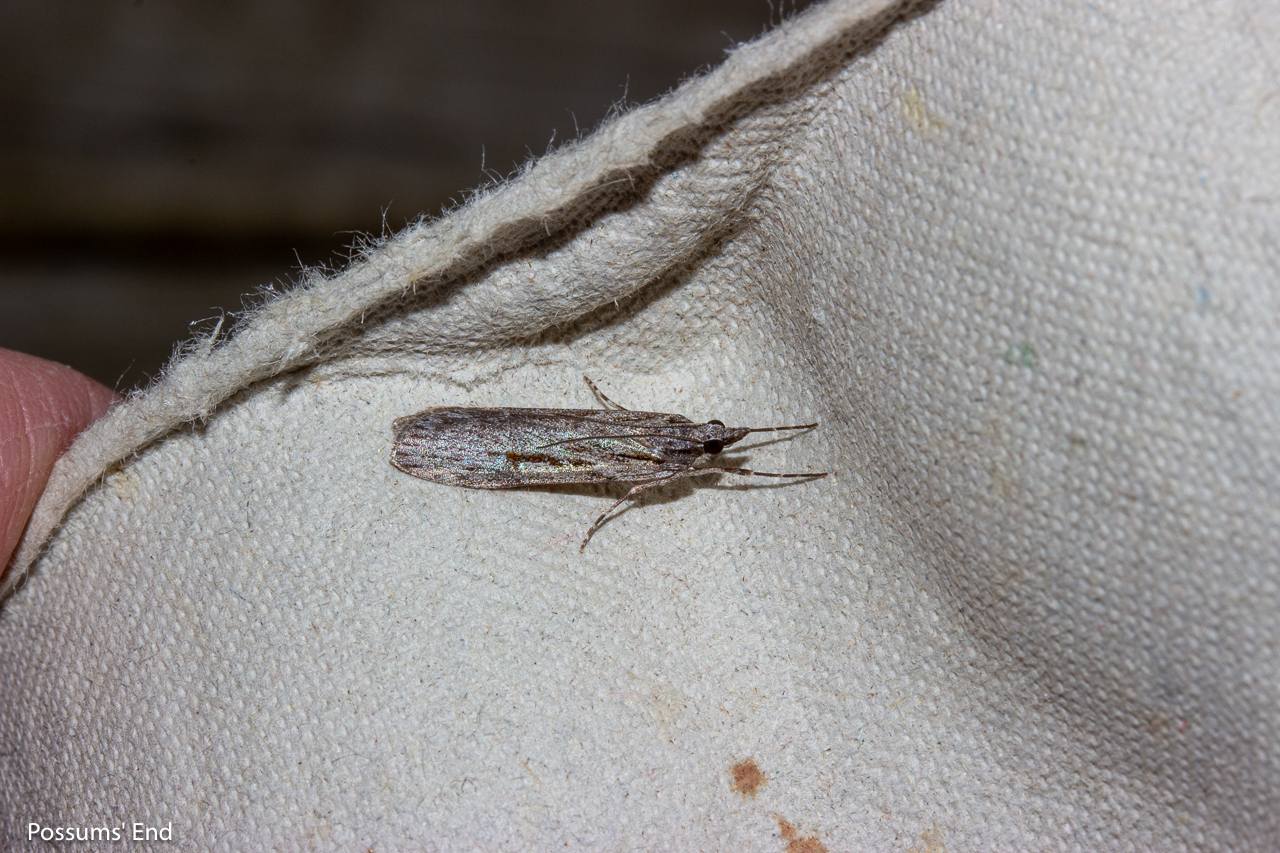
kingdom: Animalia
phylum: Arthropoda
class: Insecta
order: Lepidoptera
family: Crambidae
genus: Scoparia
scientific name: Scoparia indistinctalis
